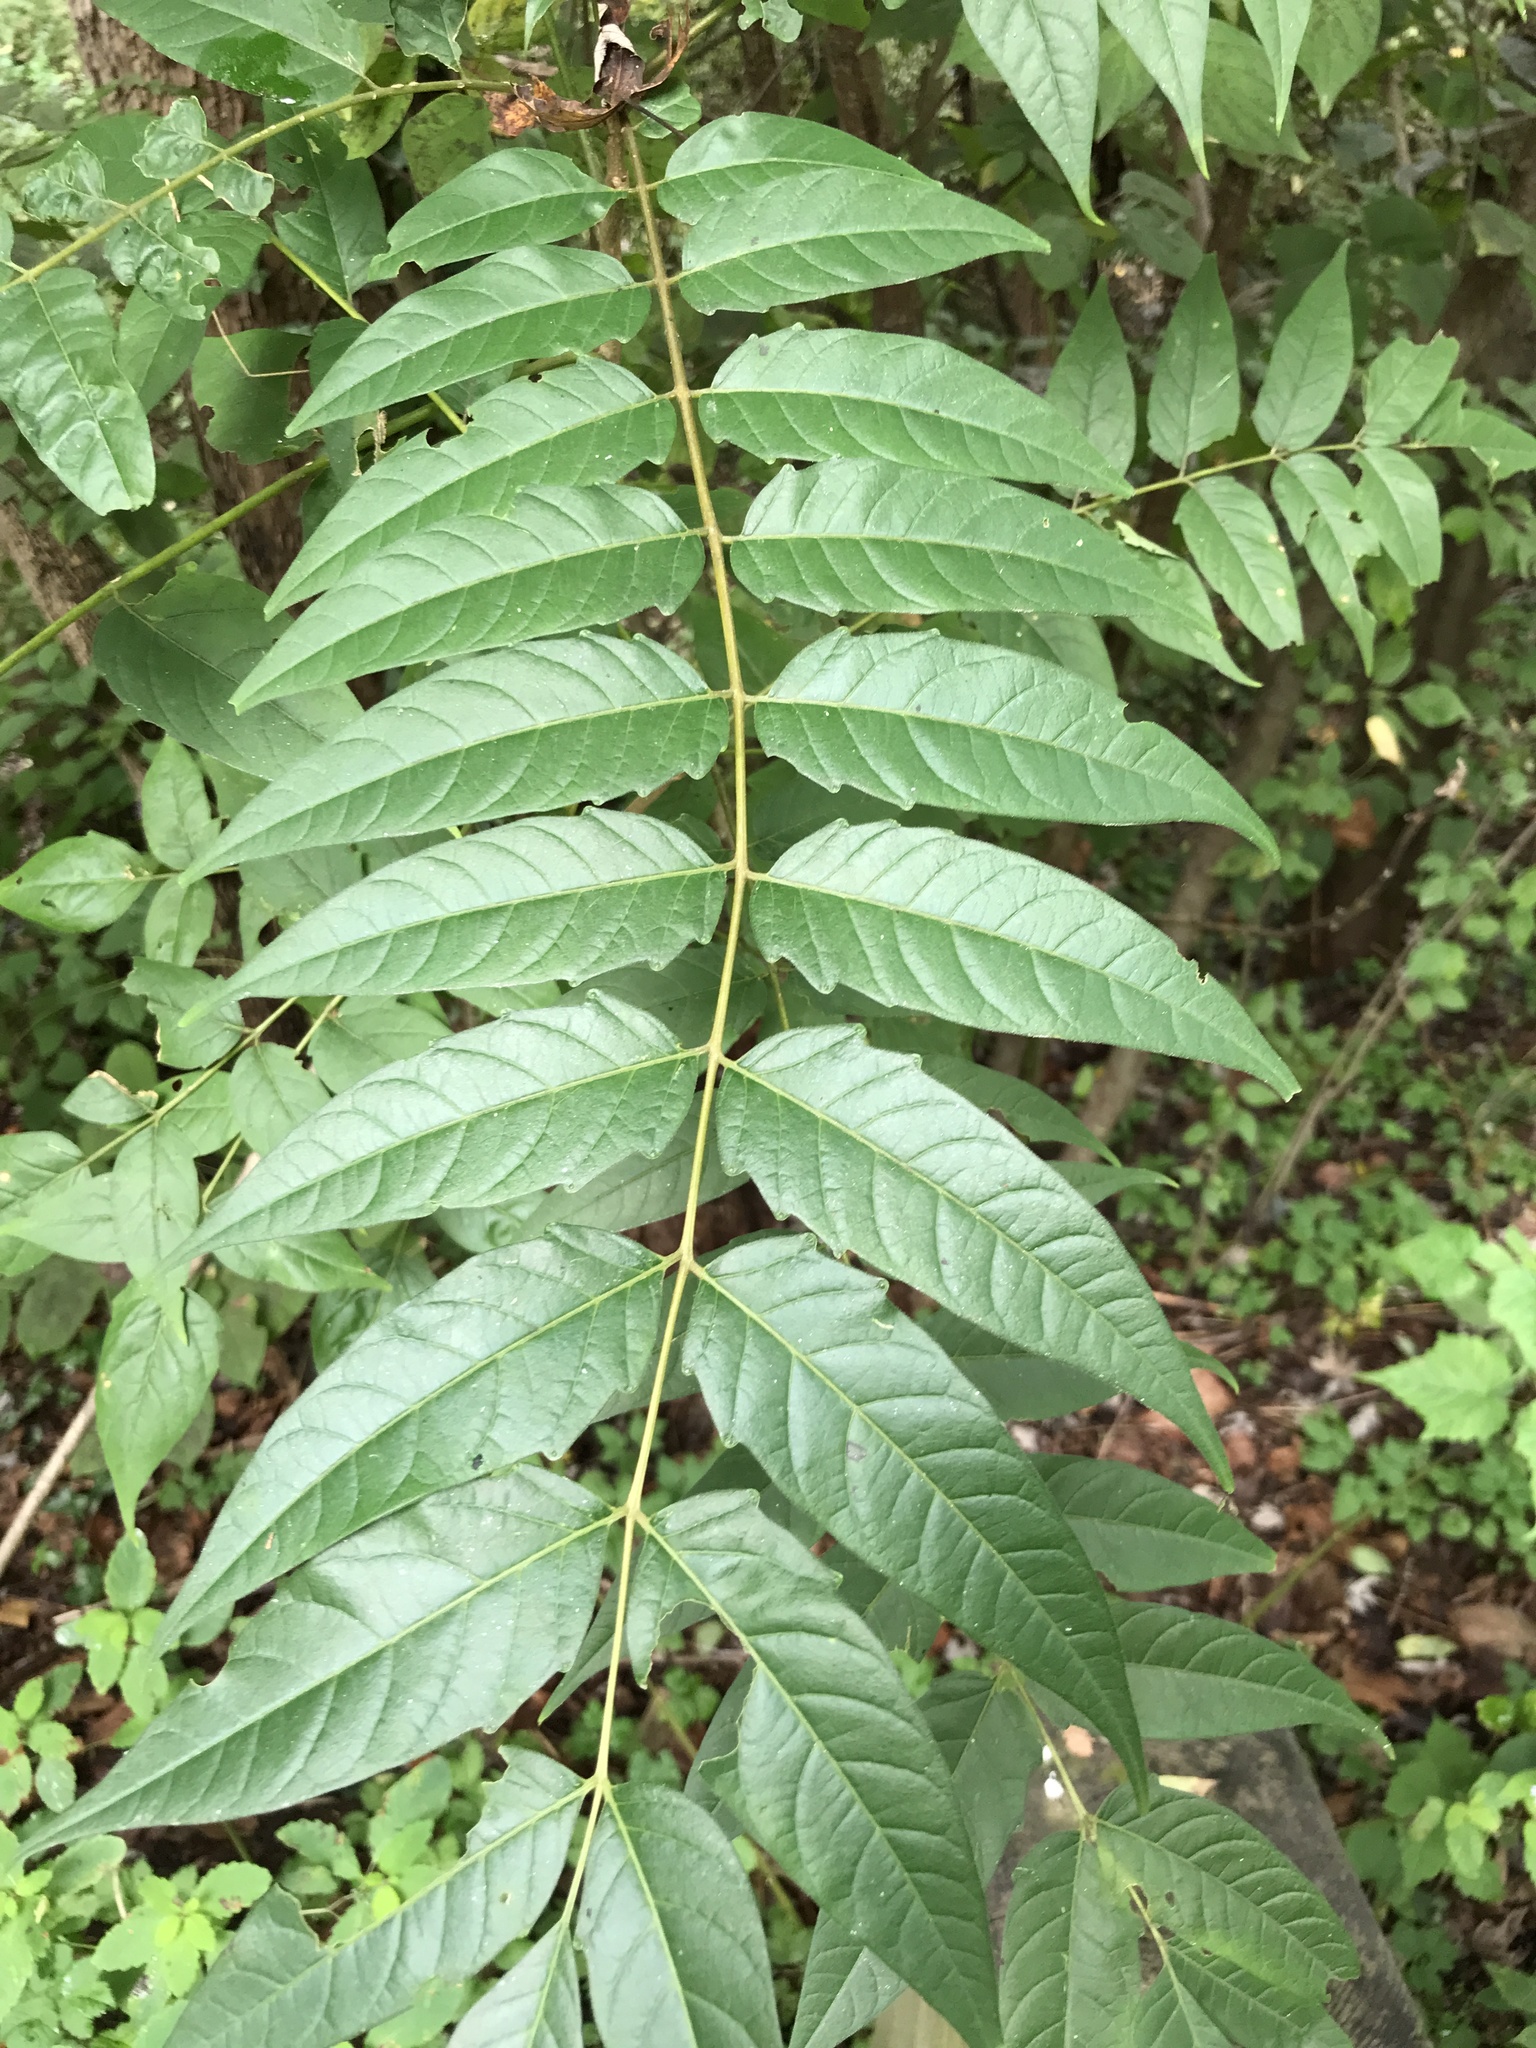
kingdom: Plantae
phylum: Tracheophyta
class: Magnoliopsida
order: Sapindales
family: Simaroubaceae
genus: Ailanthus
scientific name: Ailanthus altissima
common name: Tree-of-heaven
